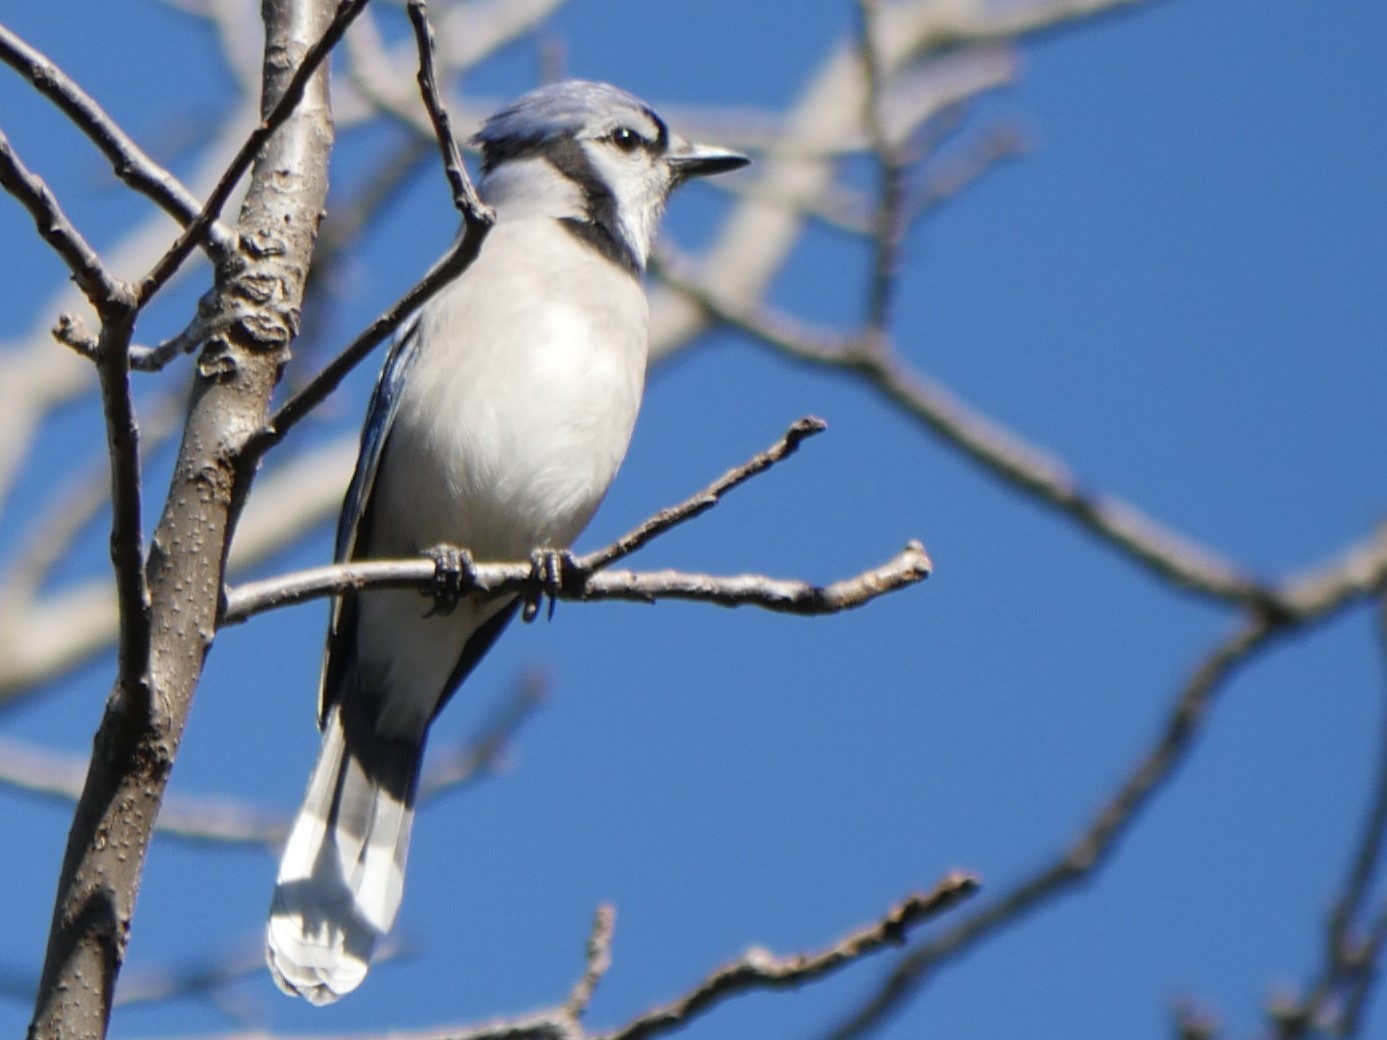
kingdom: Animalia
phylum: Chordata
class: Aves
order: Passeriformes
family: Corvidae
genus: Cyanocitta
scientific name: Cyanocitta cristata
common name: Blue jay
